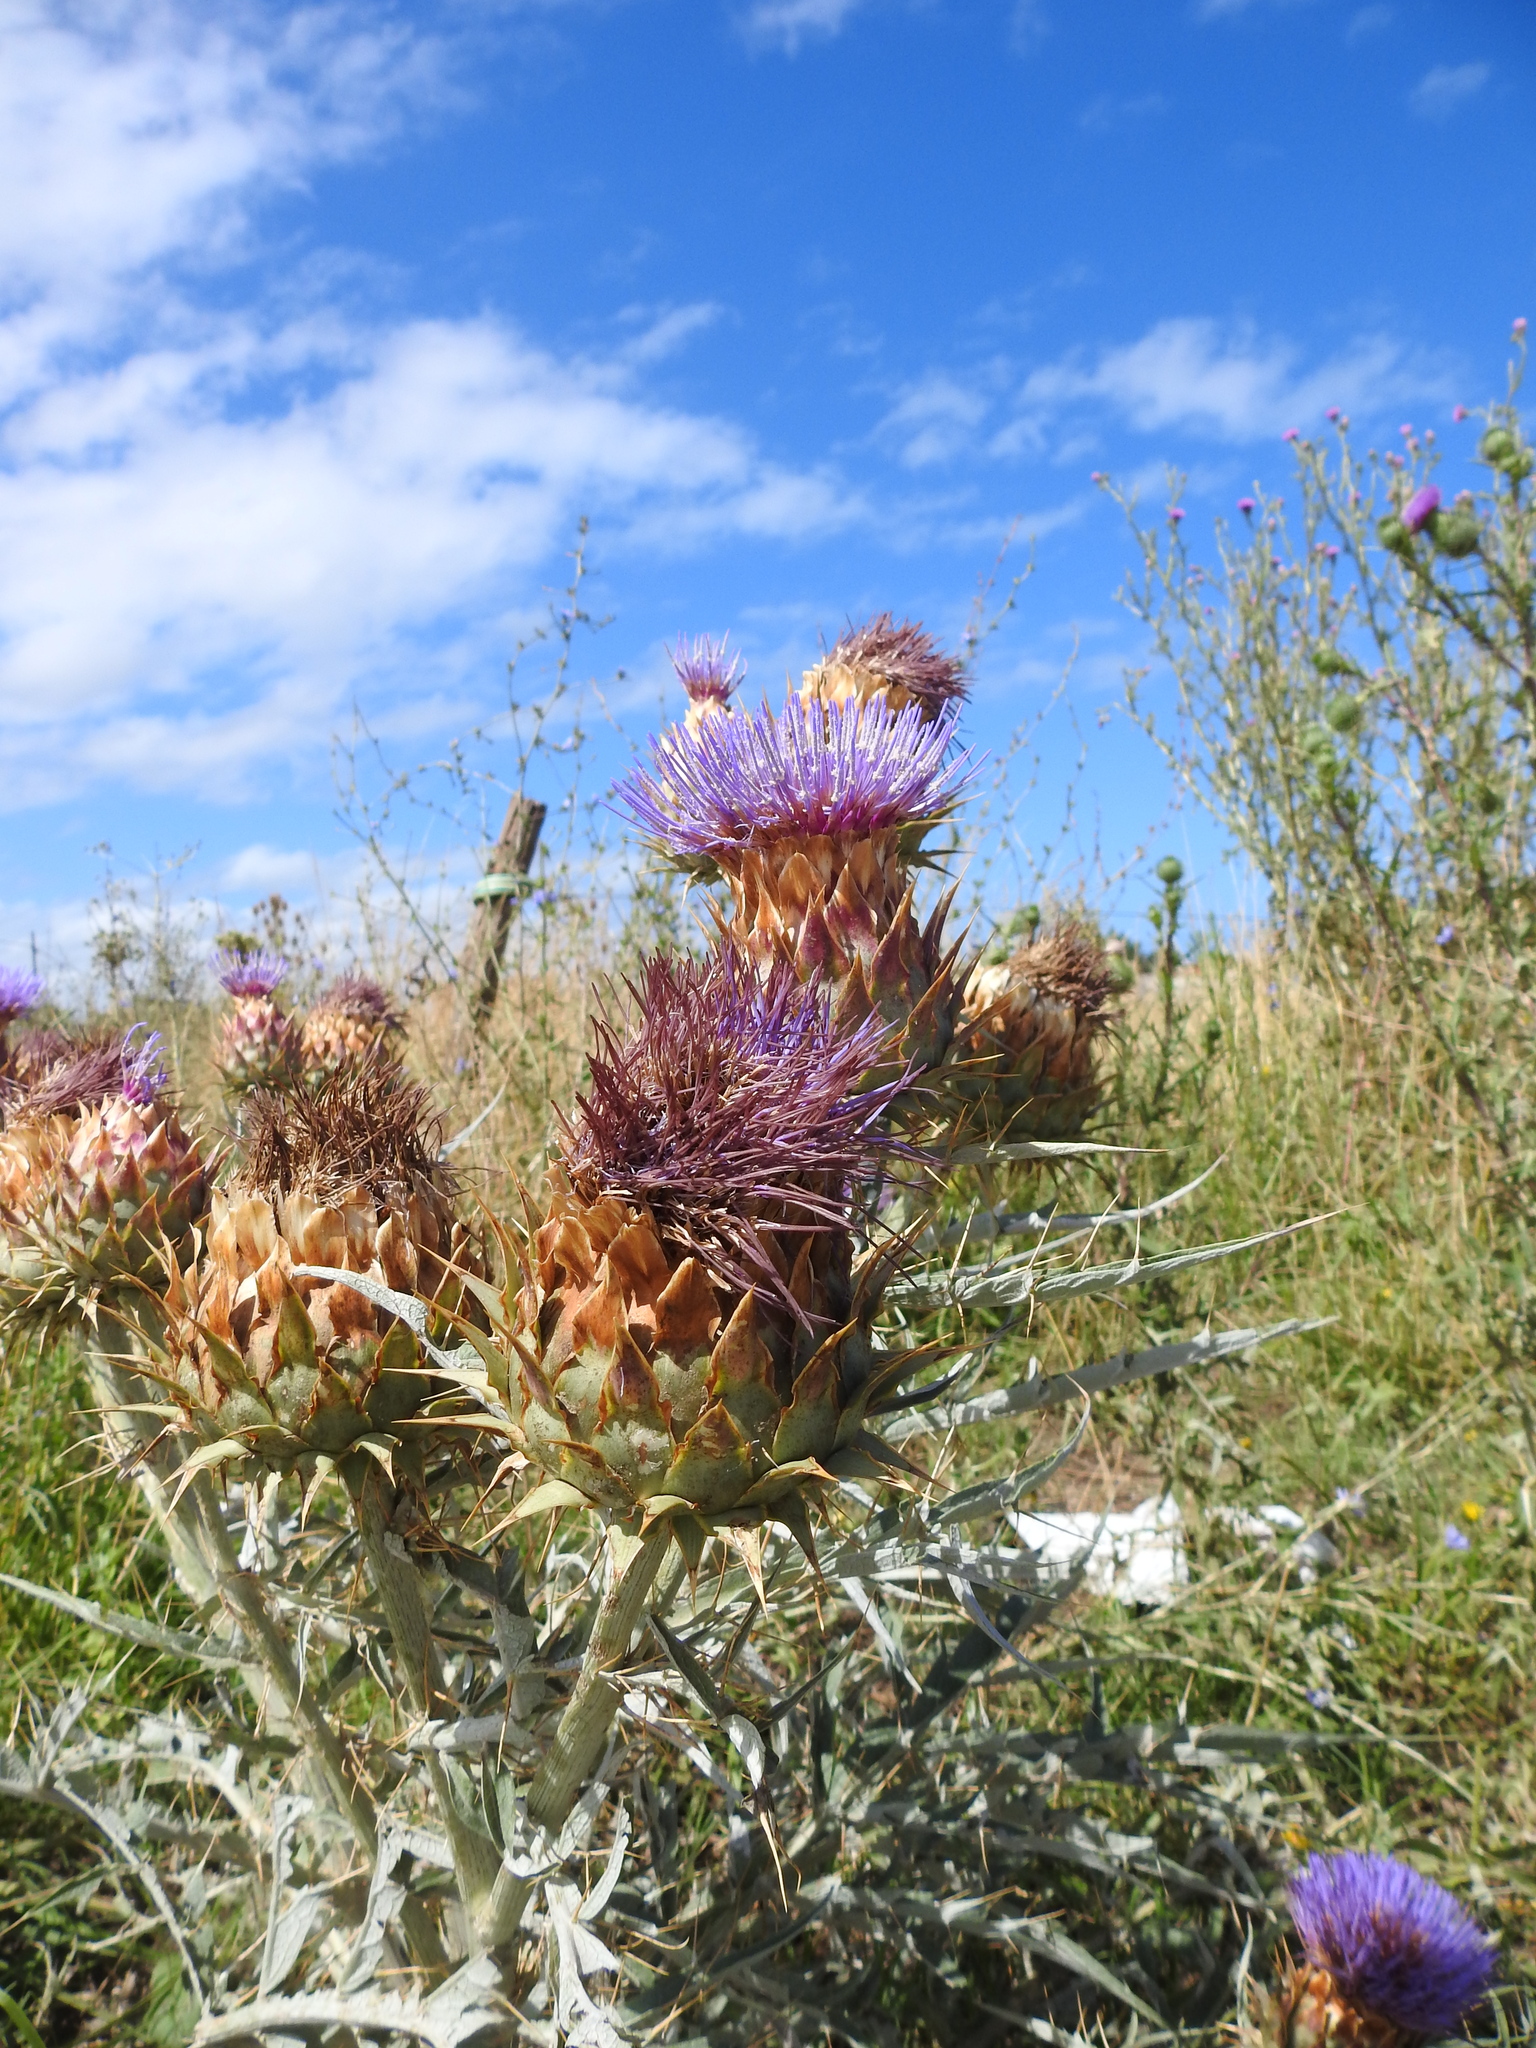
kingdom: Plantae
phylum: Tracheophyta
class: Magnoliopsida
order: Asterales
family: Asteraceae
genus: Cynara
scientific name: Cynara cardunculus
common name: Globe artichoke
